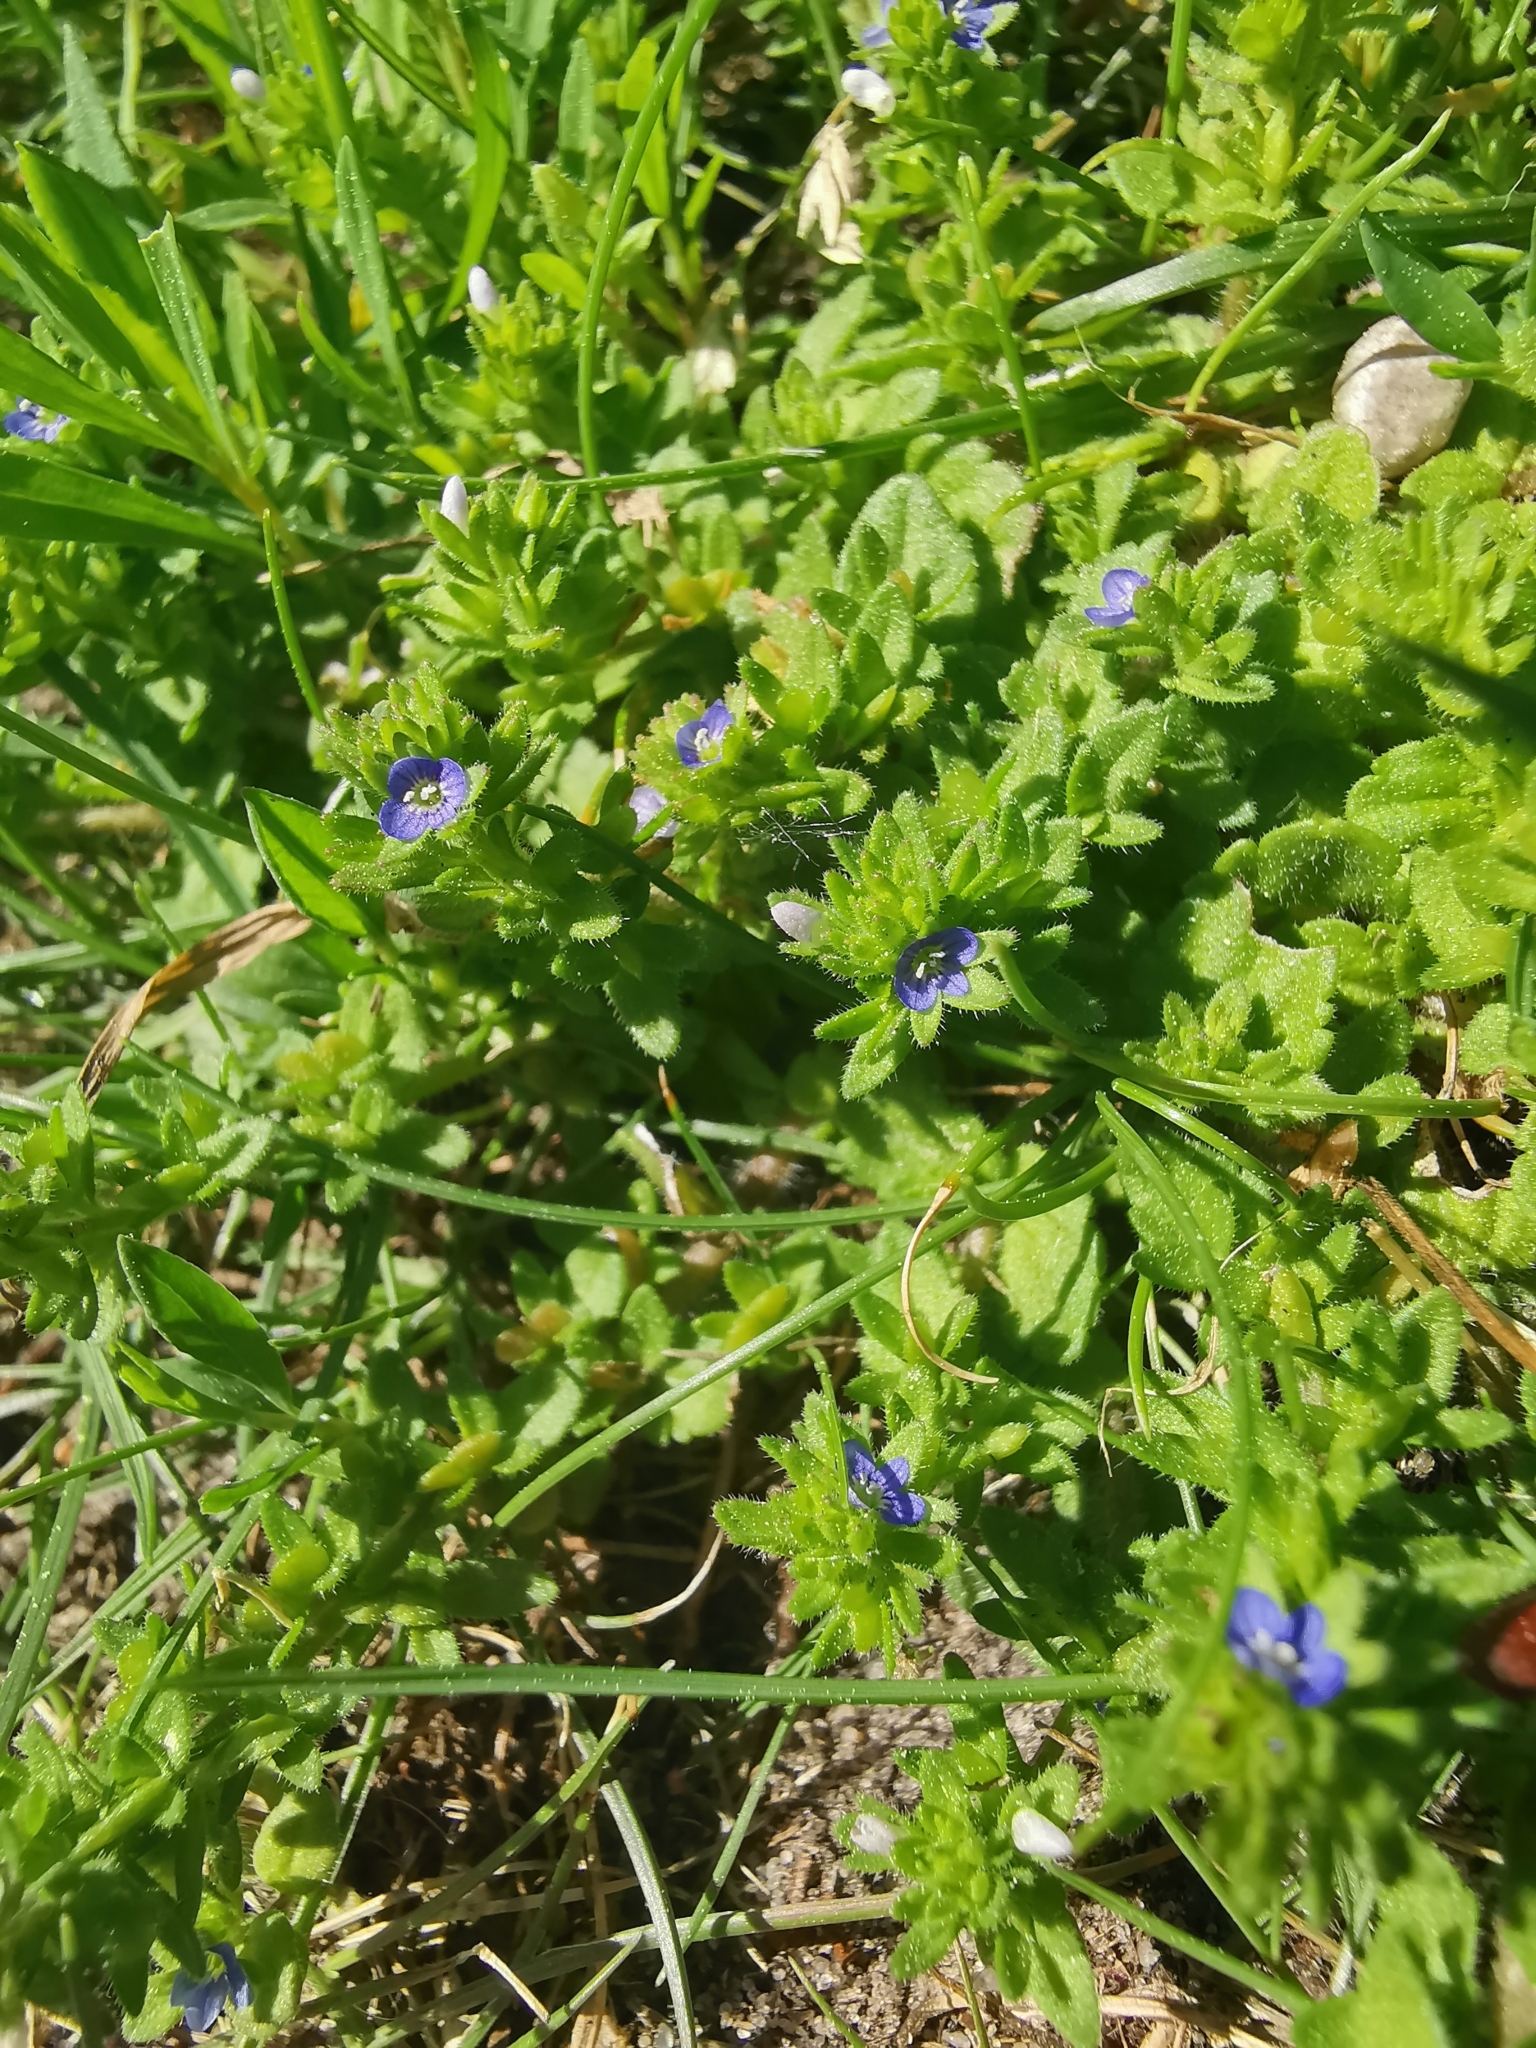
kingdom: Plantae
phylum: Tracheophyta
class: Magnoliopsida
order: Lamiales
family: Plantaginaceae
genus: Veronica
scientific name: Veronica arvensis
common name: Corn speedwell
